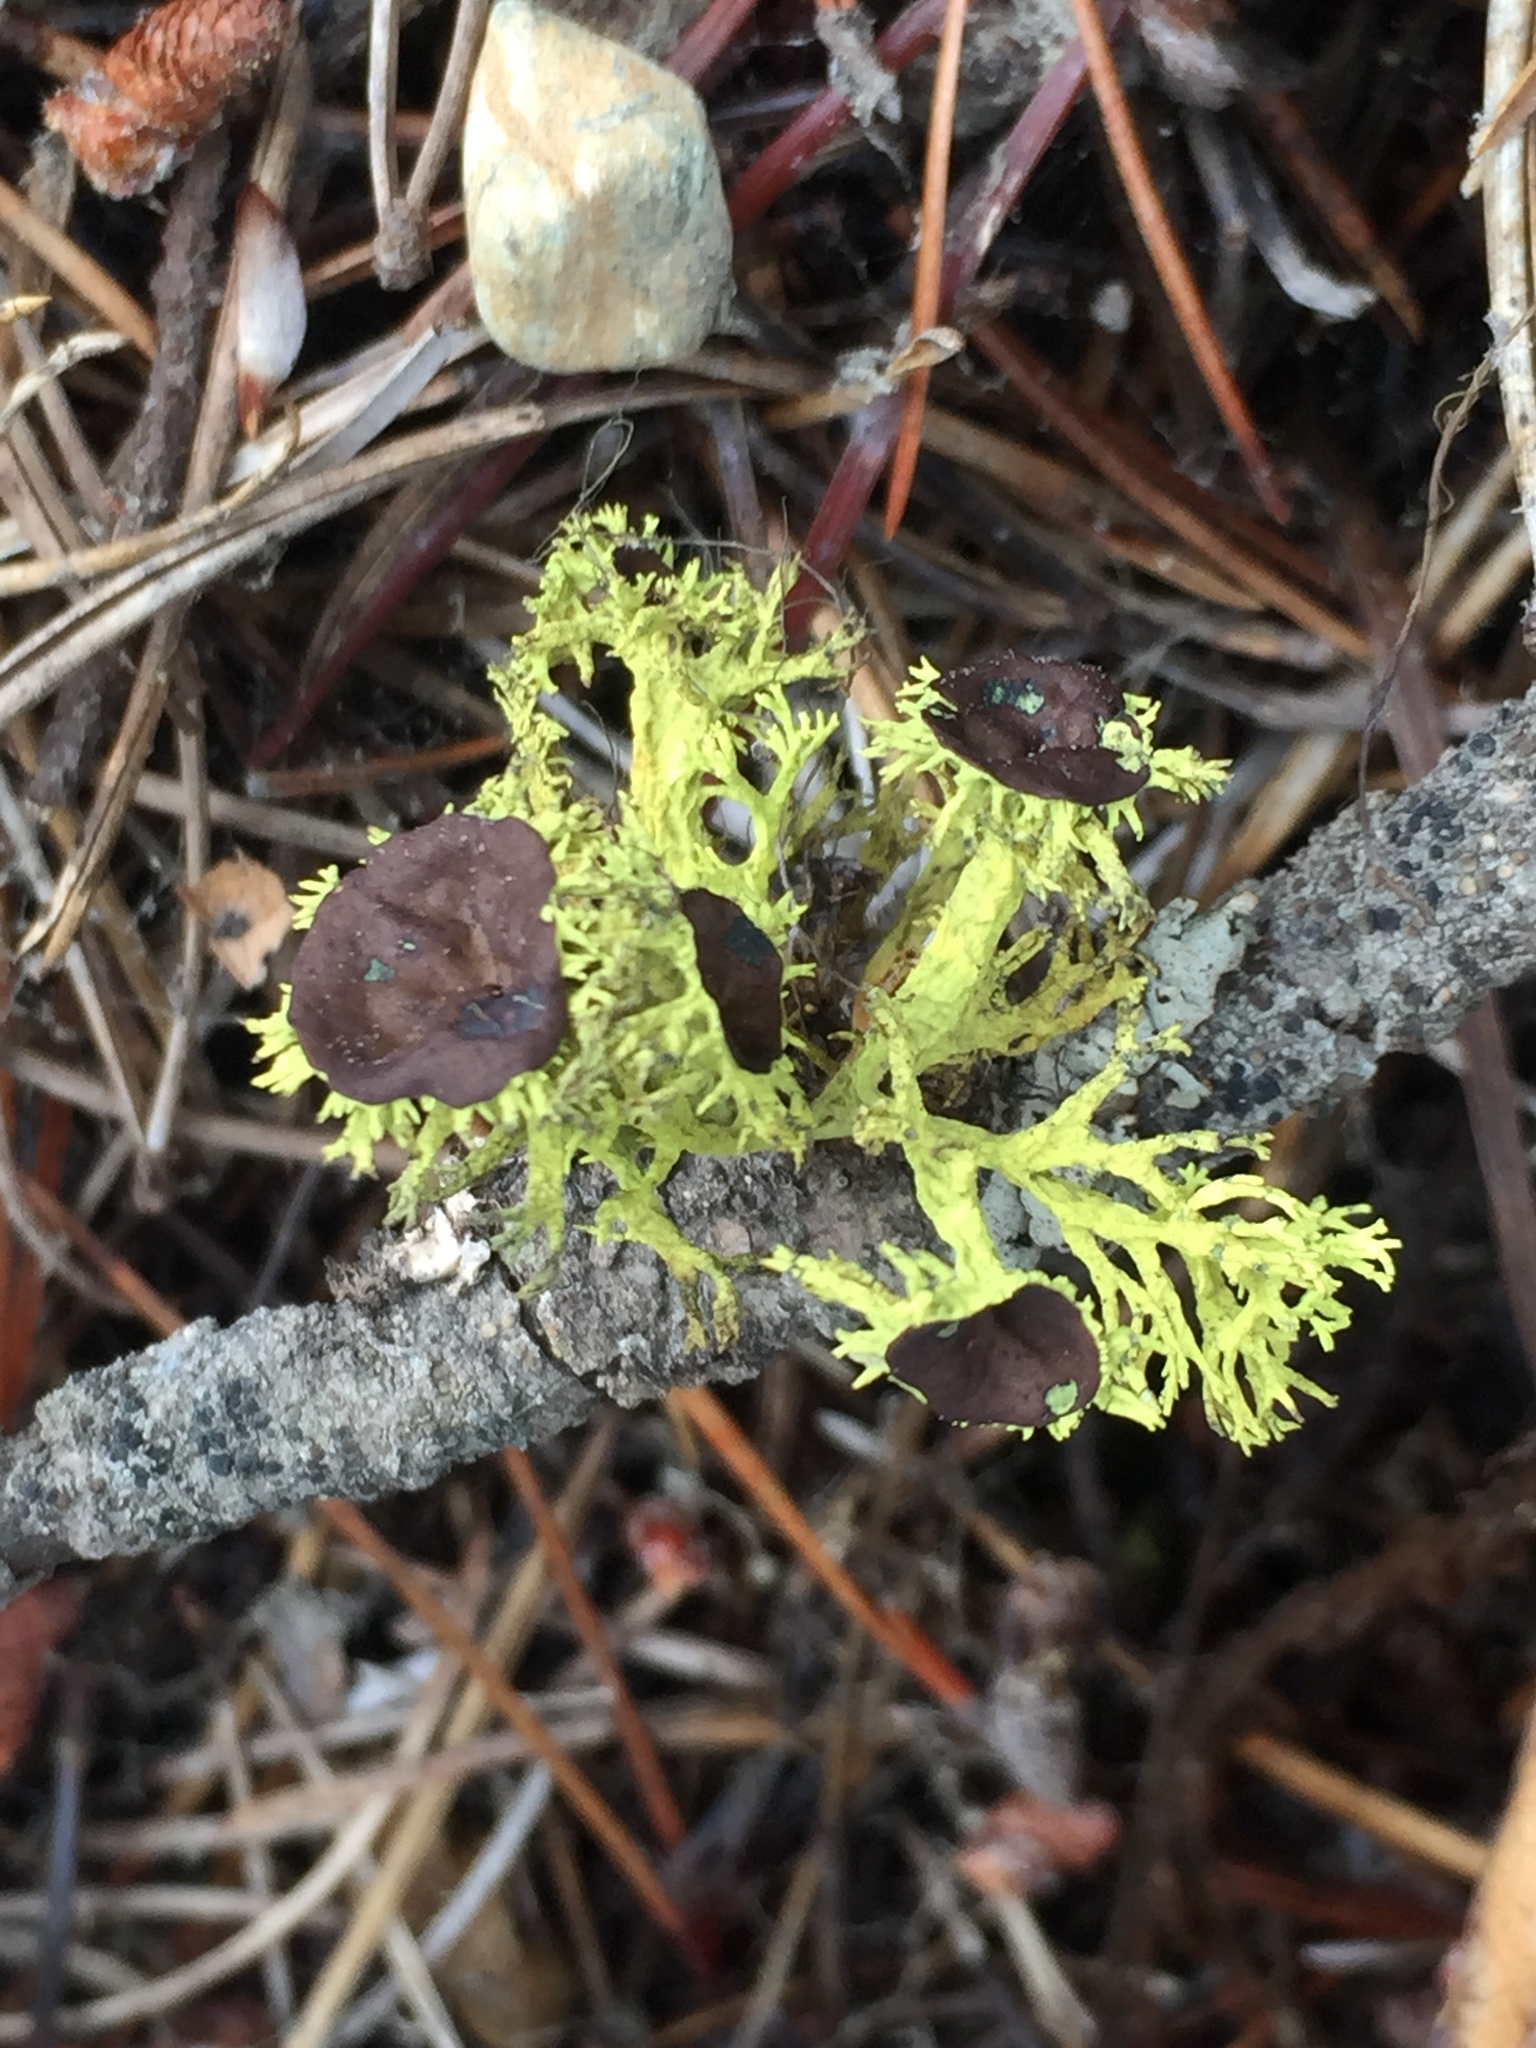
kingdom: Fungi
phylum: Ascomycota
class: Lecanoromycetes
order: Lecanorales
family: Parmeliaceae
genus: Letharia
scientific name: Letharia columbiana
